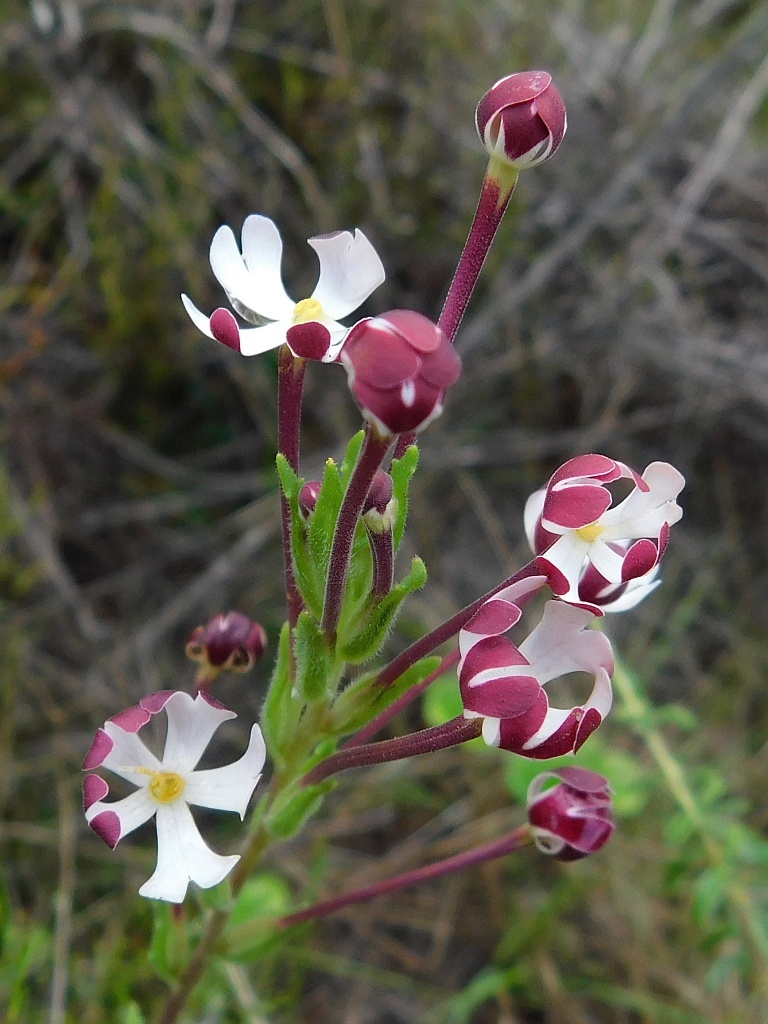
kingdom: Plantae
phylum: Tracheophyta
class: Magnoliopsida
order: Lamiales
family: Scrophulariaceae
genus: Zaluzianskya
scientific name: Zaluzianskya capensis
